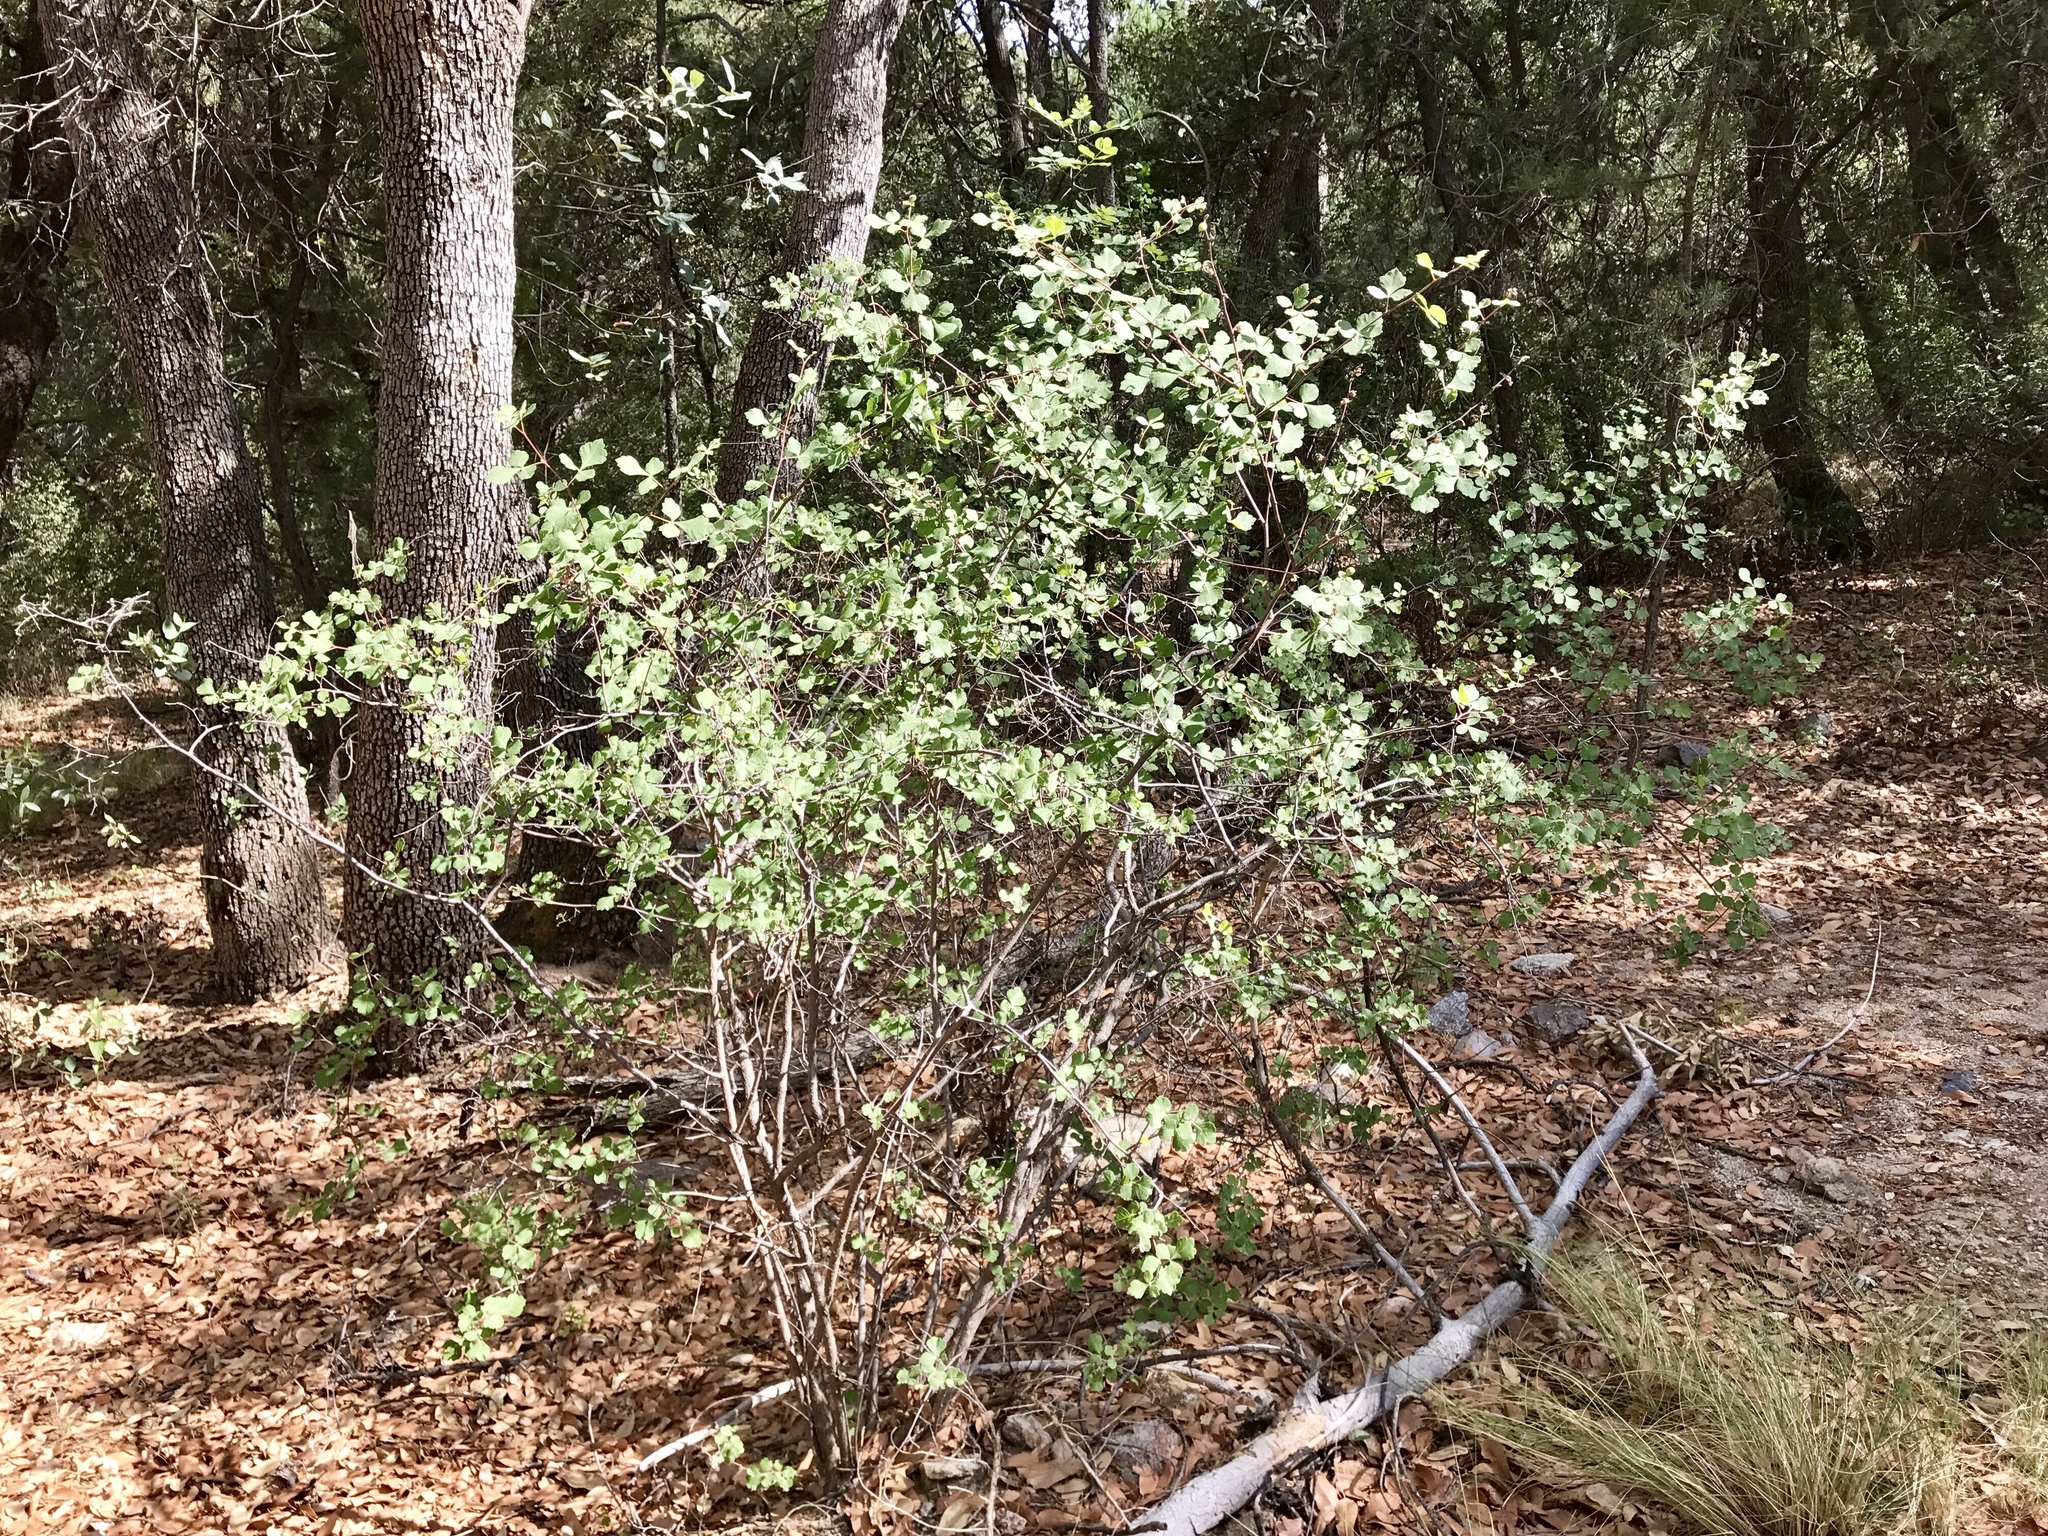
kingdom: Plantae
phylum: Tracheophyta
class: Magnoliopsida
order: Sapindales
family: Anacardiaceae
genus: Rhus
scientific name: Rhus aromatica
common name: Aromatic sumac
